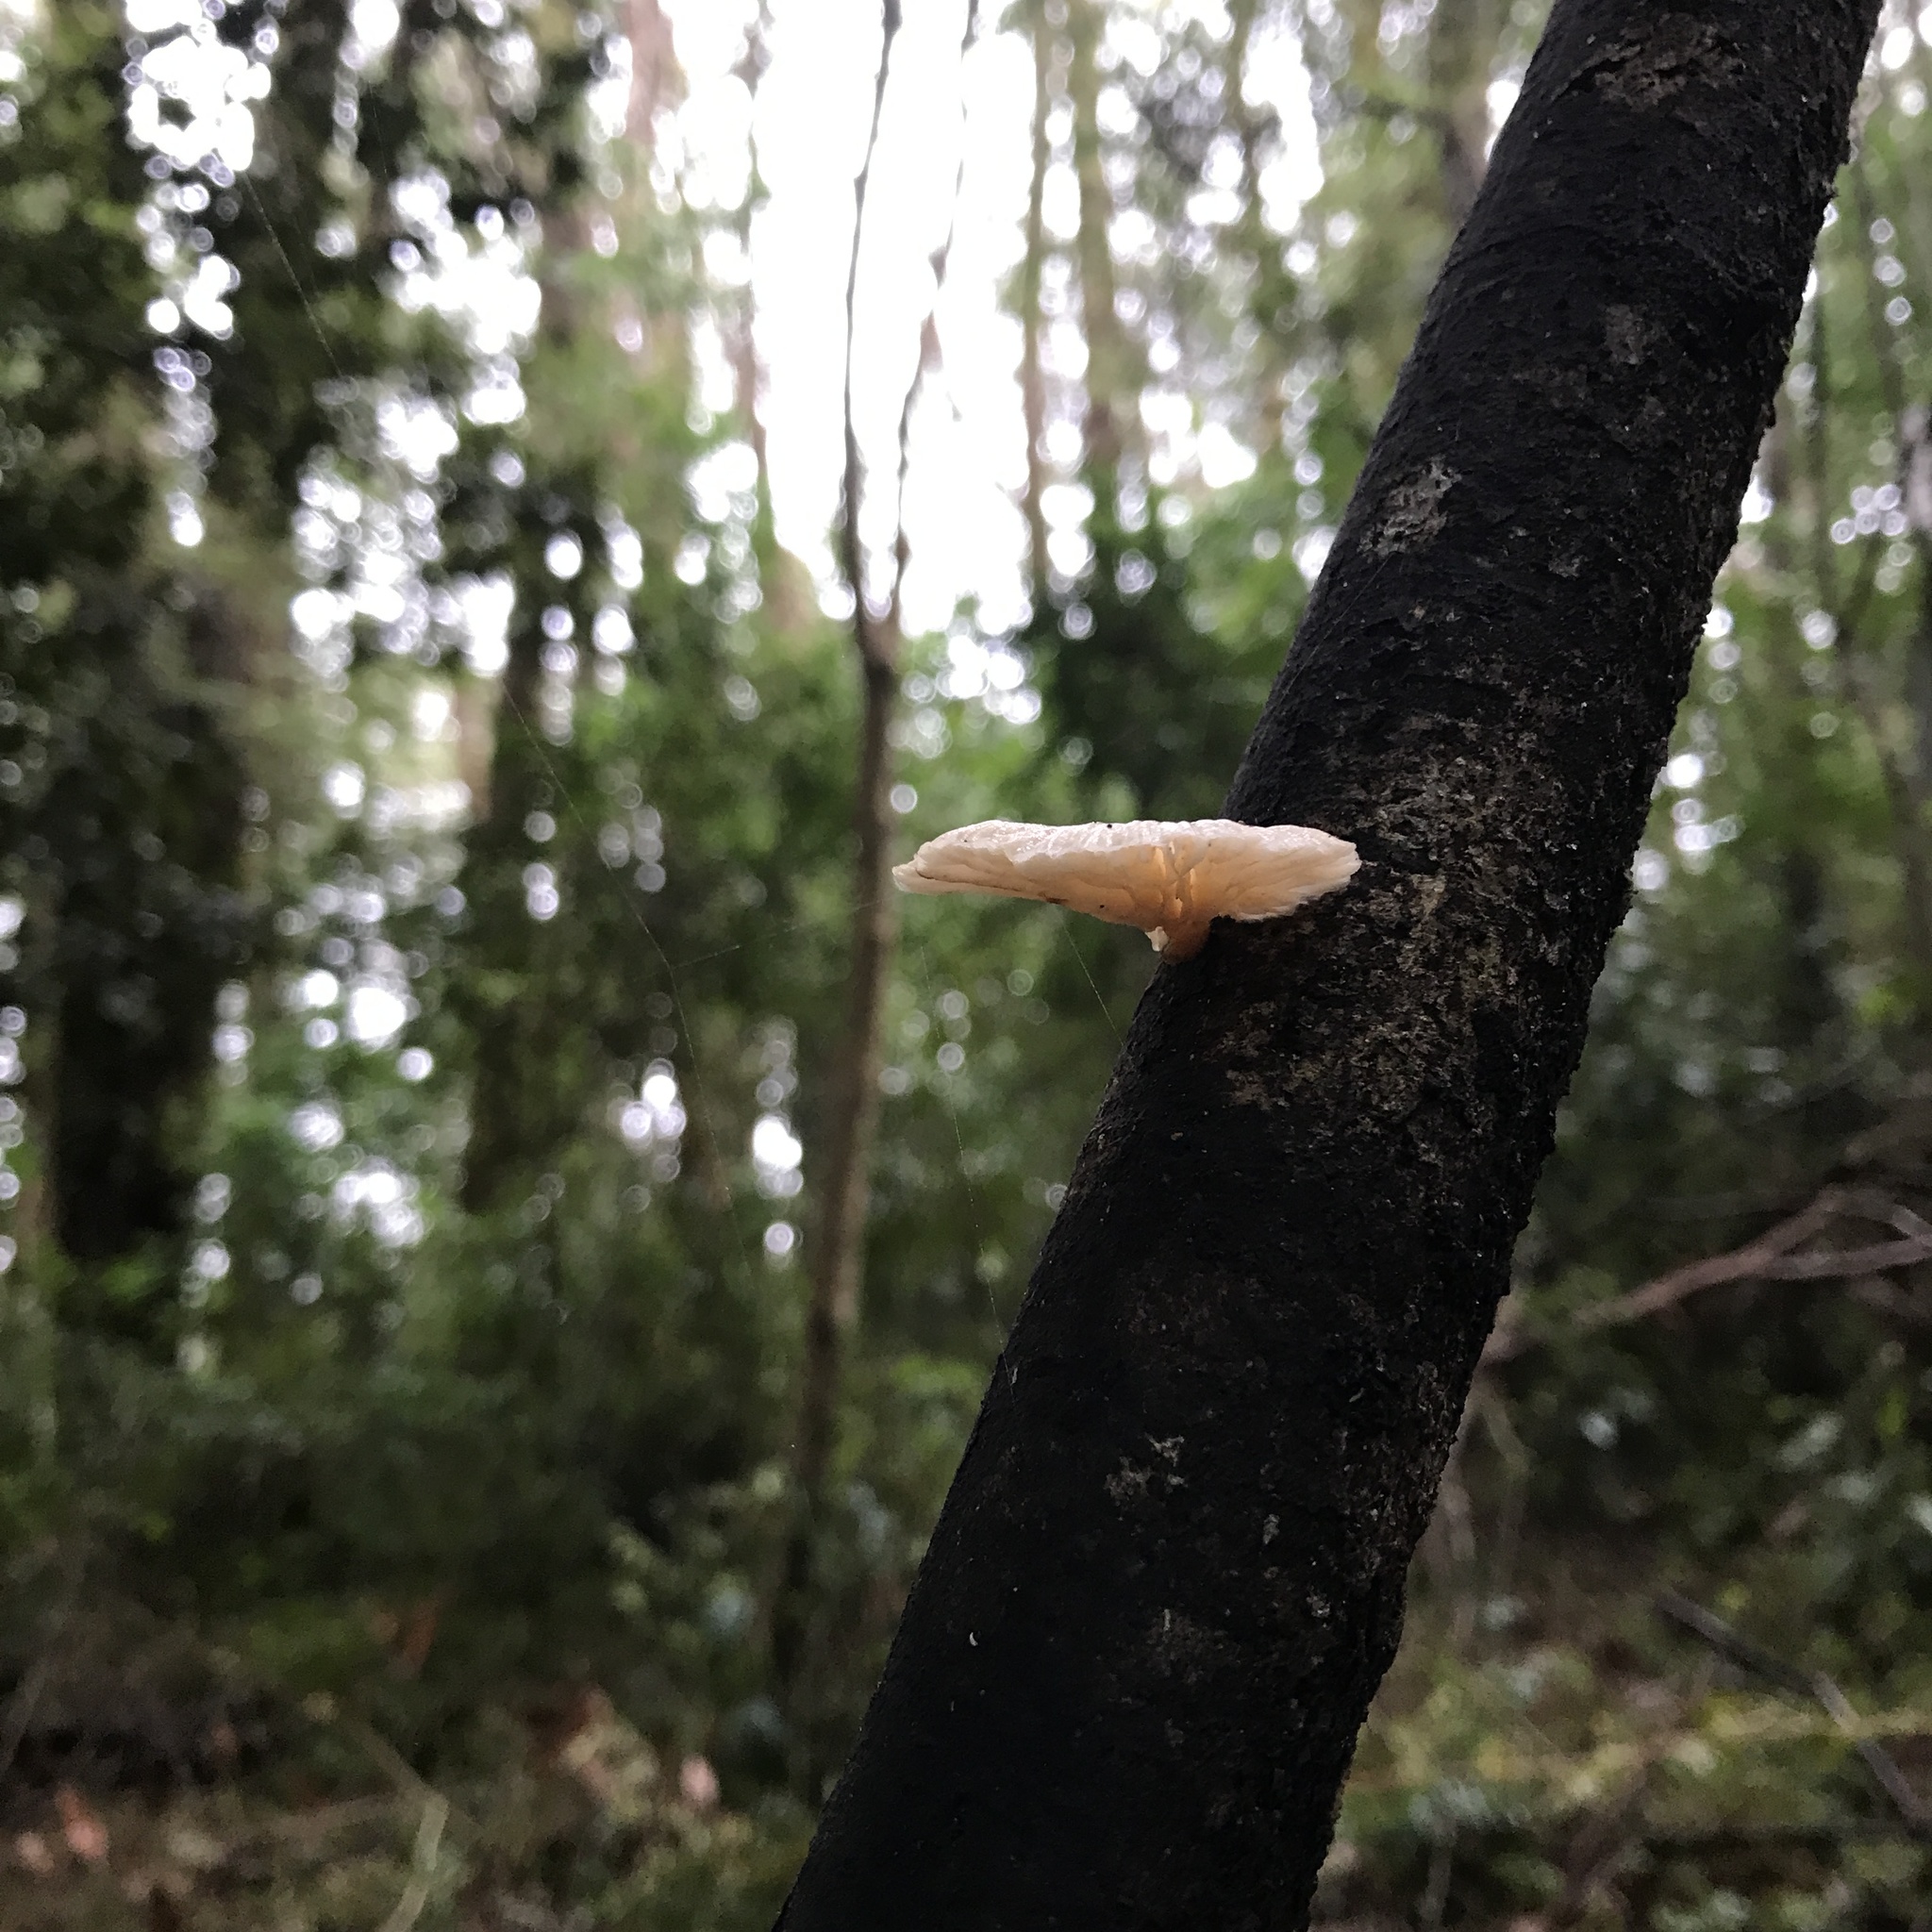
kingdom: Fungi
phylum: Basidiomycota
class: Agaricomycetes
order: Agaricales
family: Omphalotaceae
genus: Marasmiellus
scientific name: Marasmiellus alliiodorus
